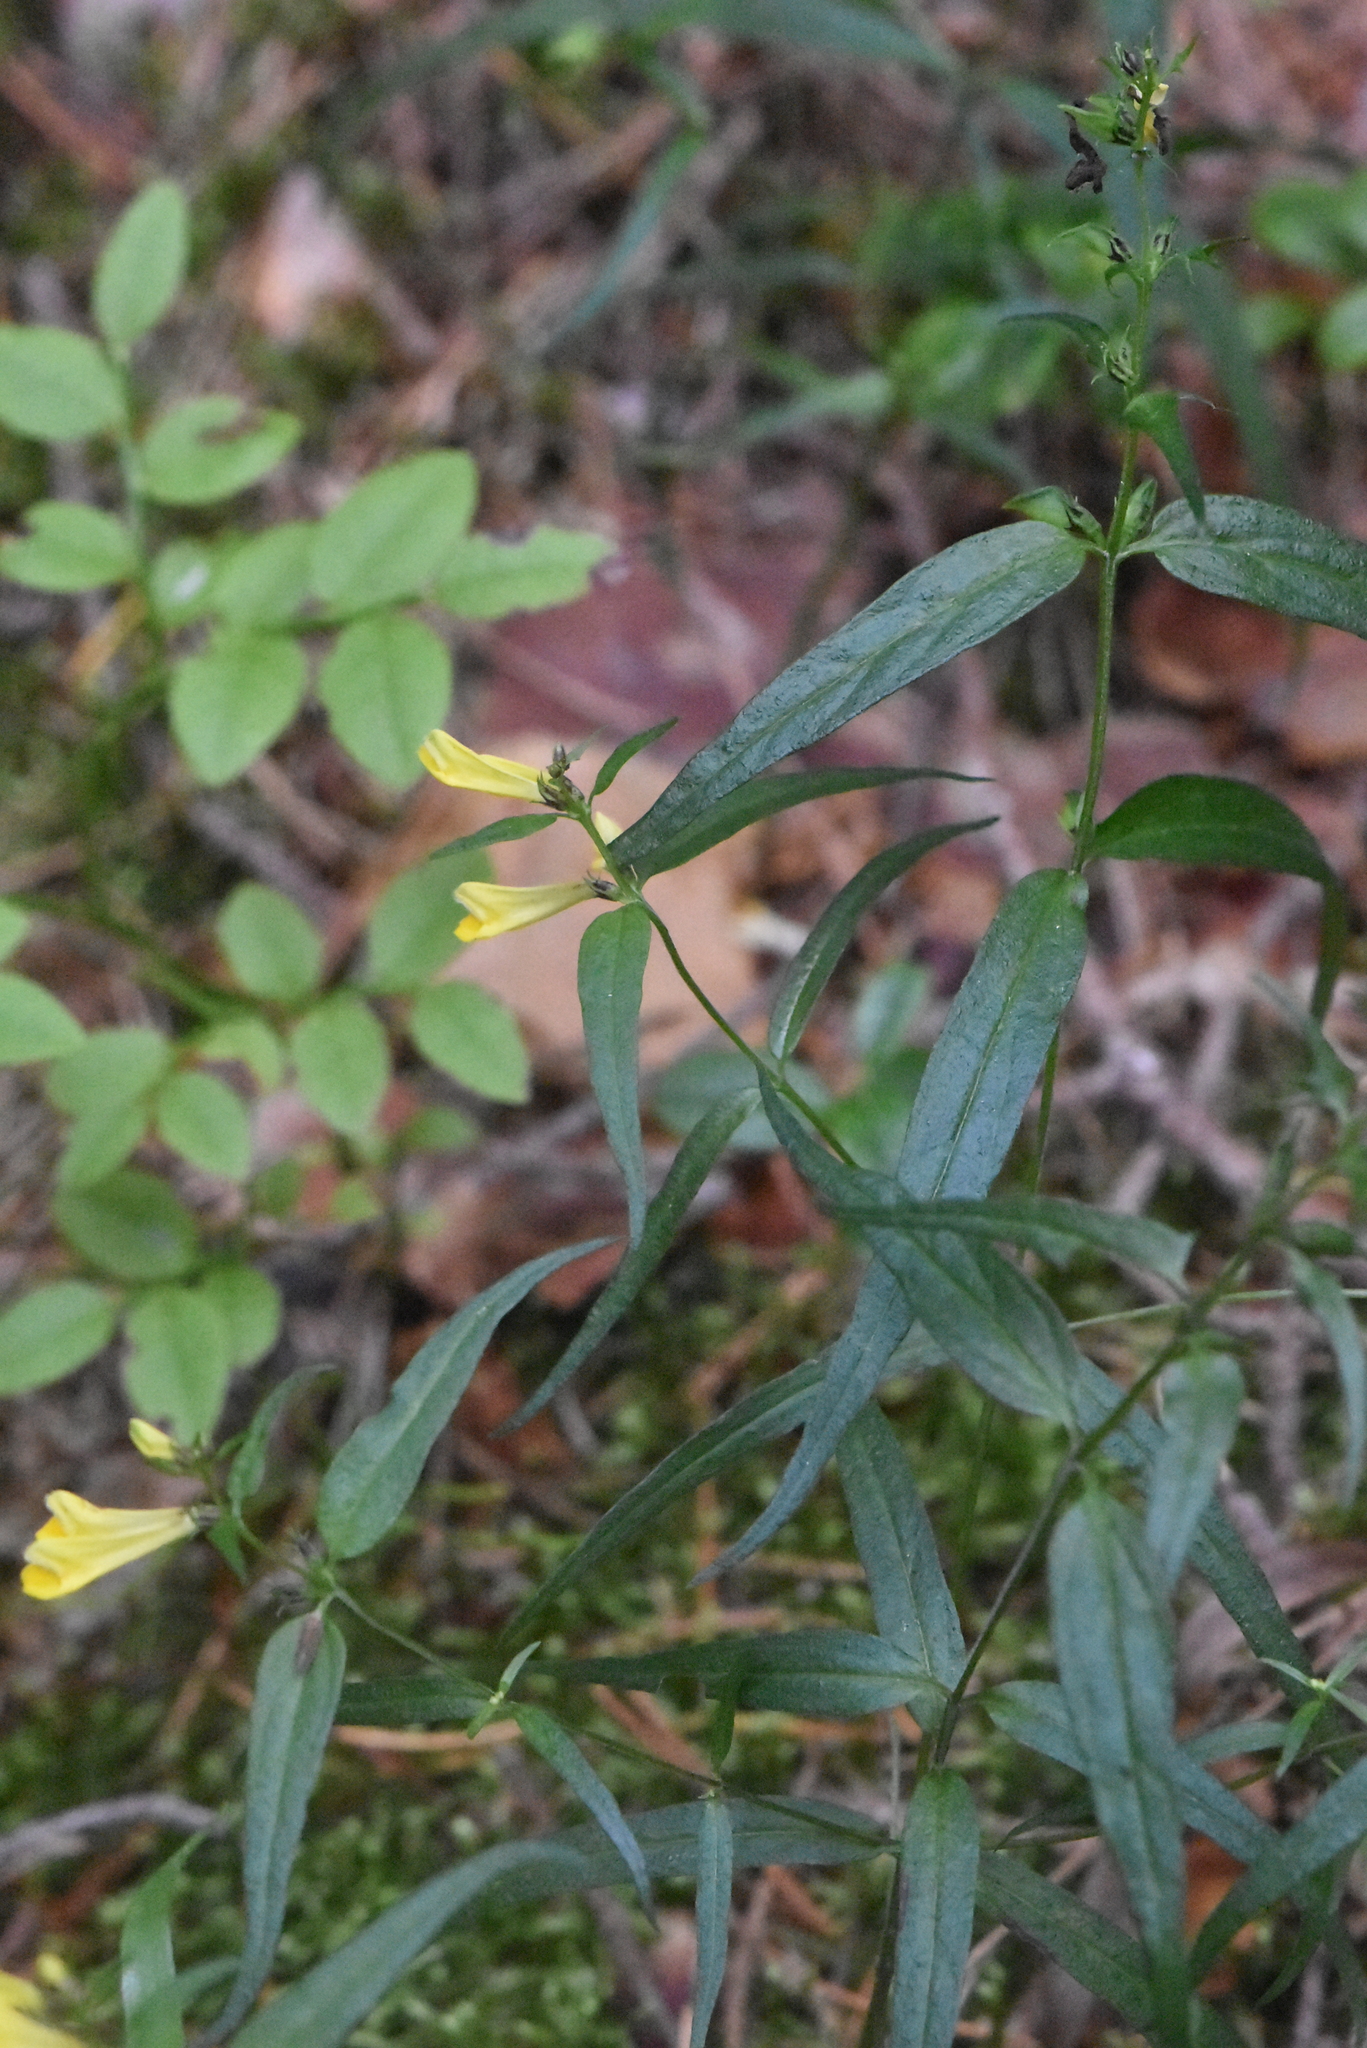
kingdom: Plantae
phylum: Tracheophyta
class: Magnoliopsida
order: Lamiales
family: Orobanchaceae
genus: Melampyrum
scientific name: Melampyrum pratense
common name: Common cow-wheat
